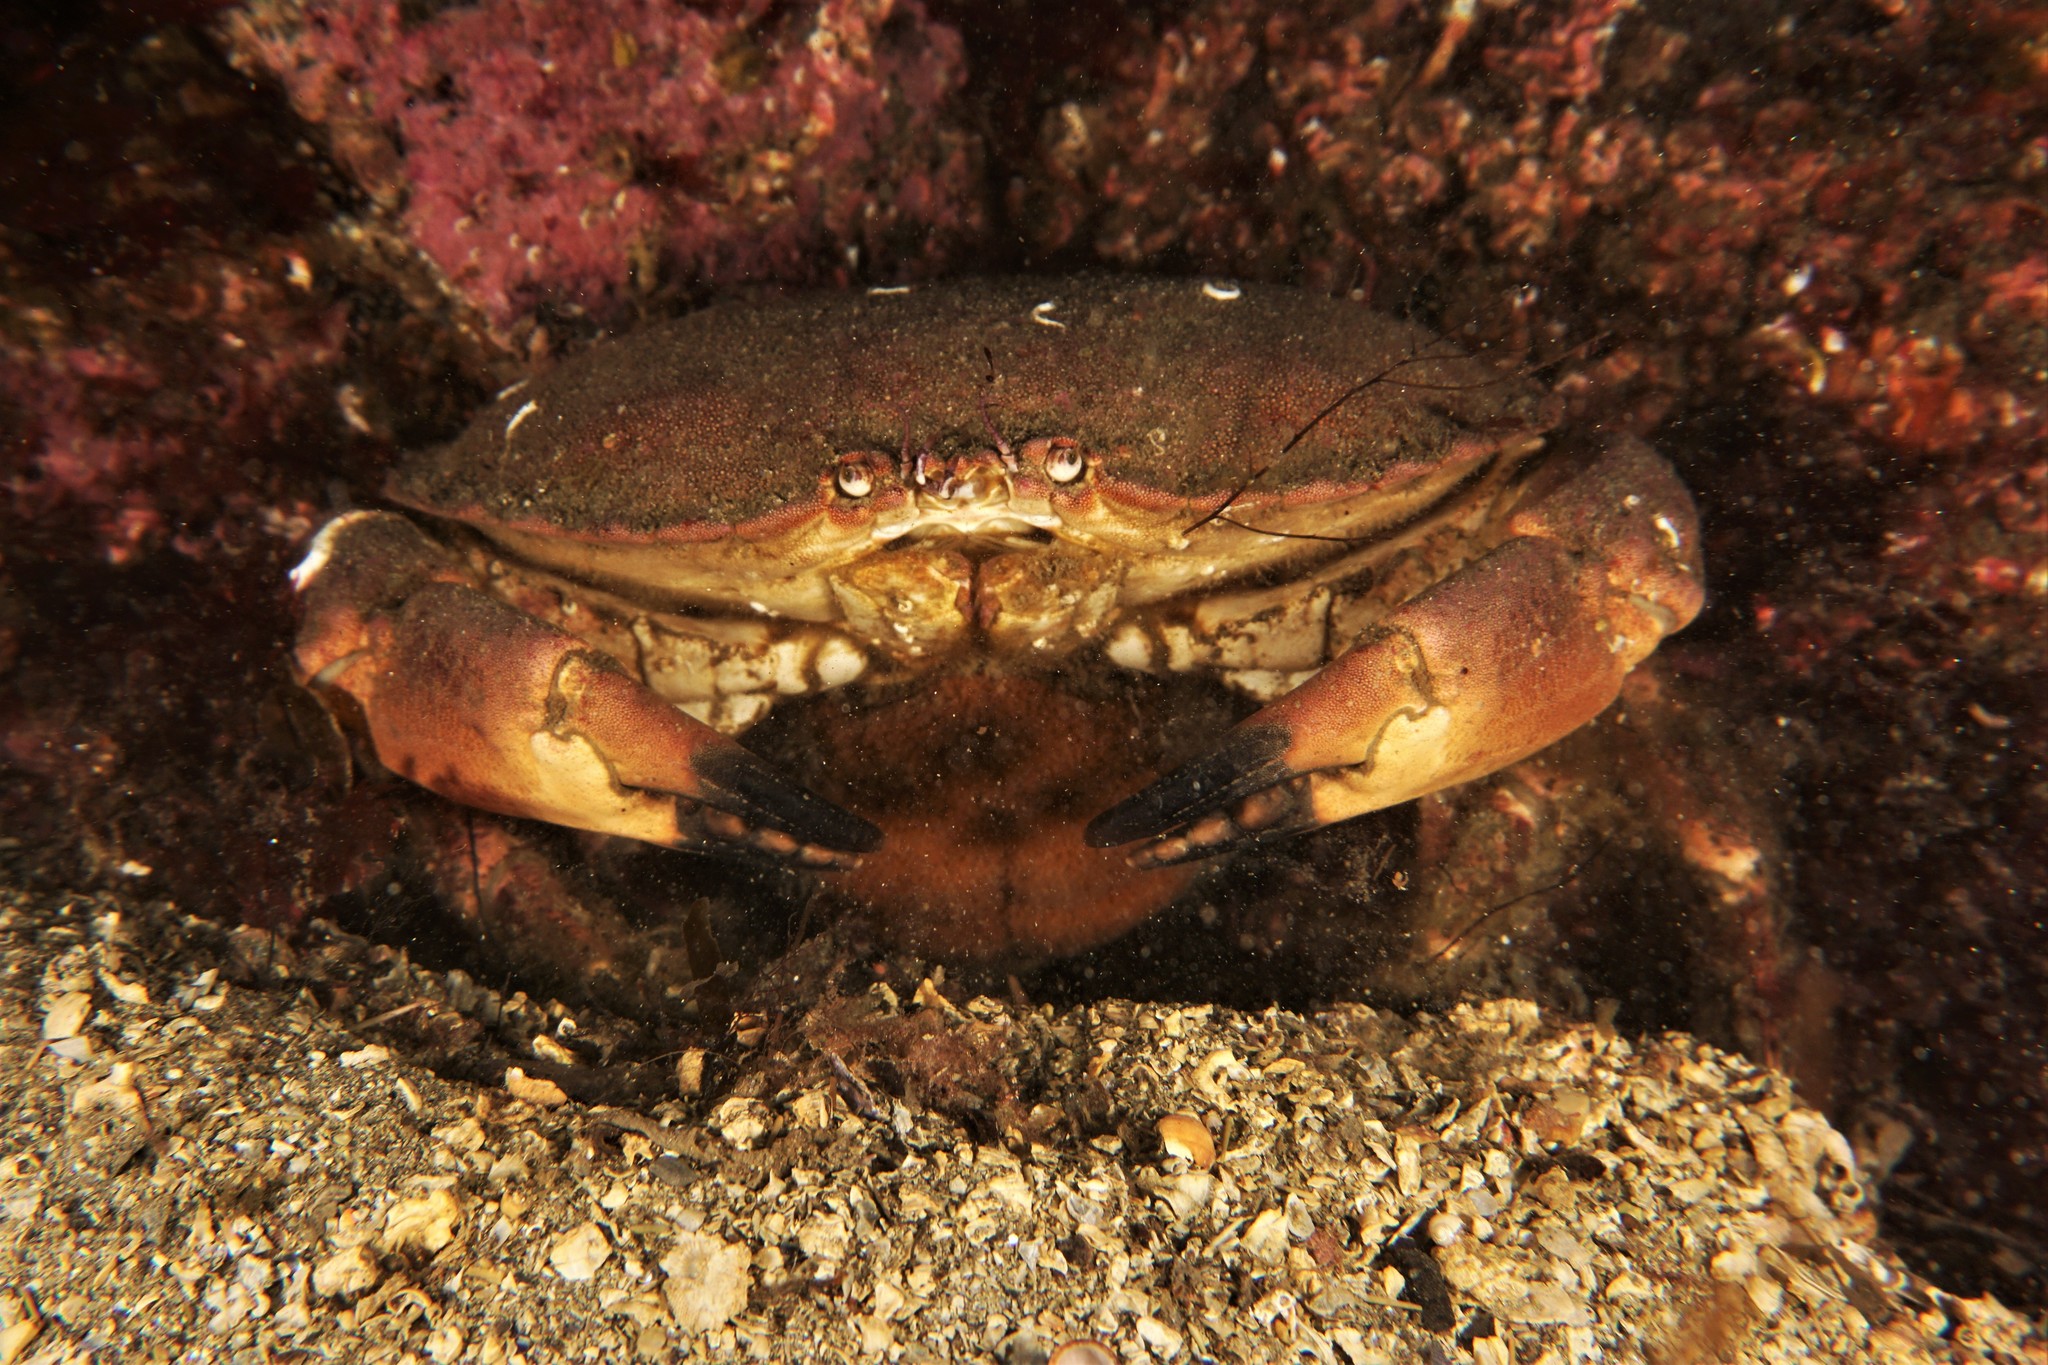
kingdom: Animalia
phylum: Arthropoda
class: Malacostraca
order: Decapoda
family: Cancridae
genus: Cancer
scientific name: Cancer pagurus
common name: Edible crab
